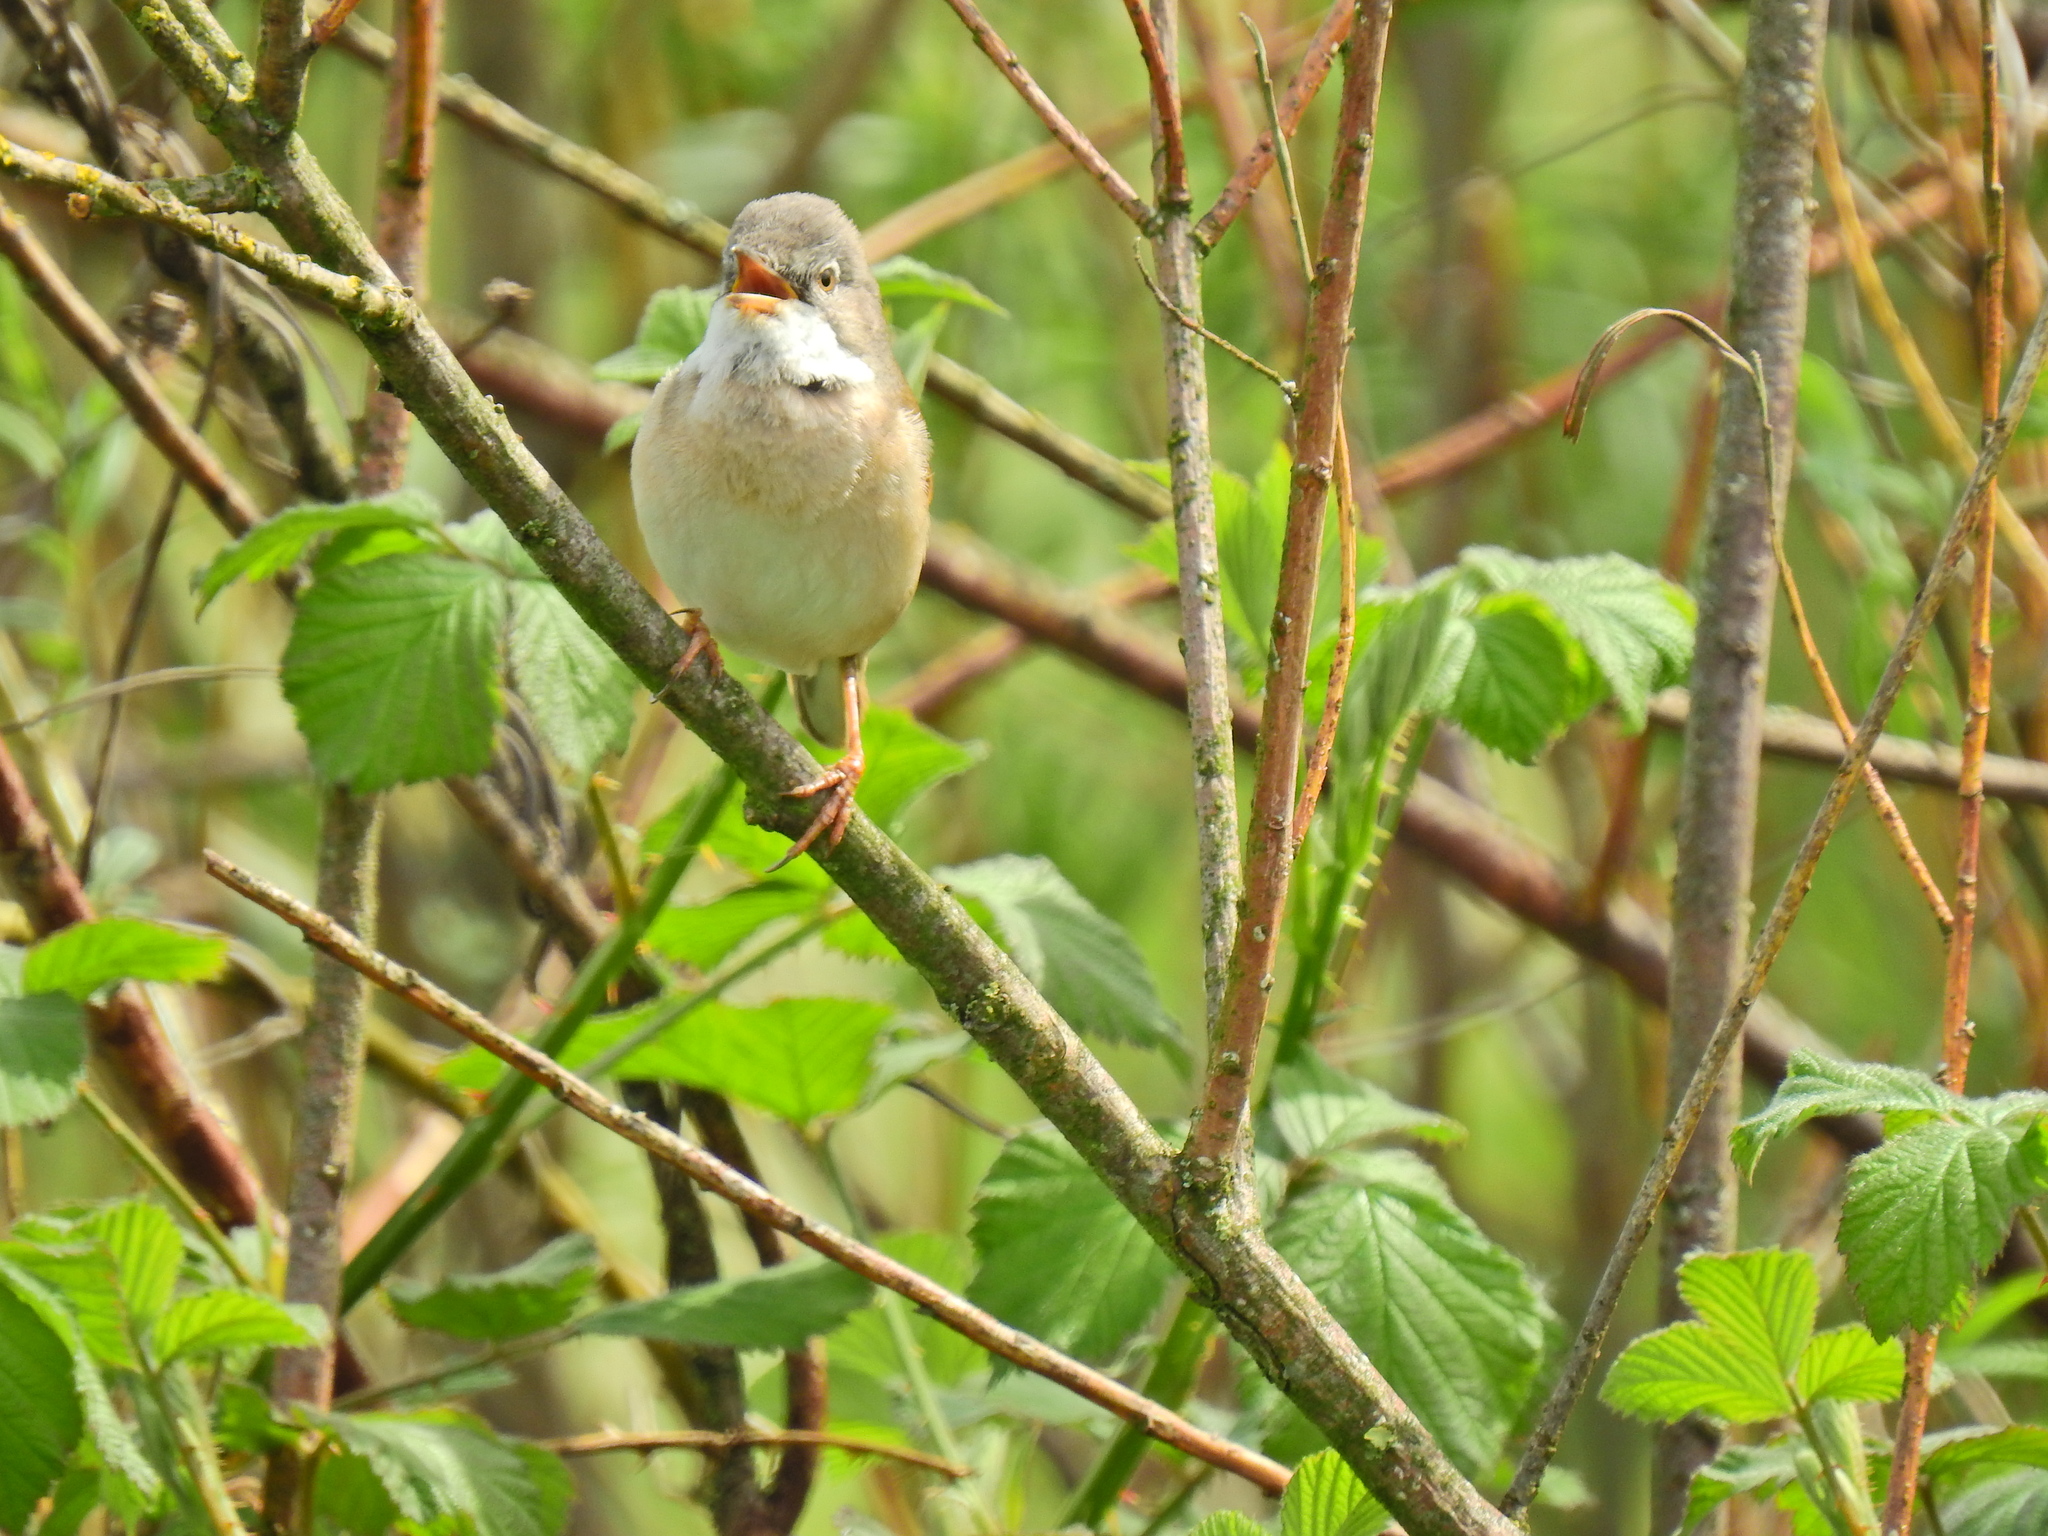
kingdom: Animalia
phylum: Chordata
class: Aves
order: Passeriformes
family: Sylviidae
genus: Sylvia
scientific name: Sylvia communis
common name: Common whitethroat
